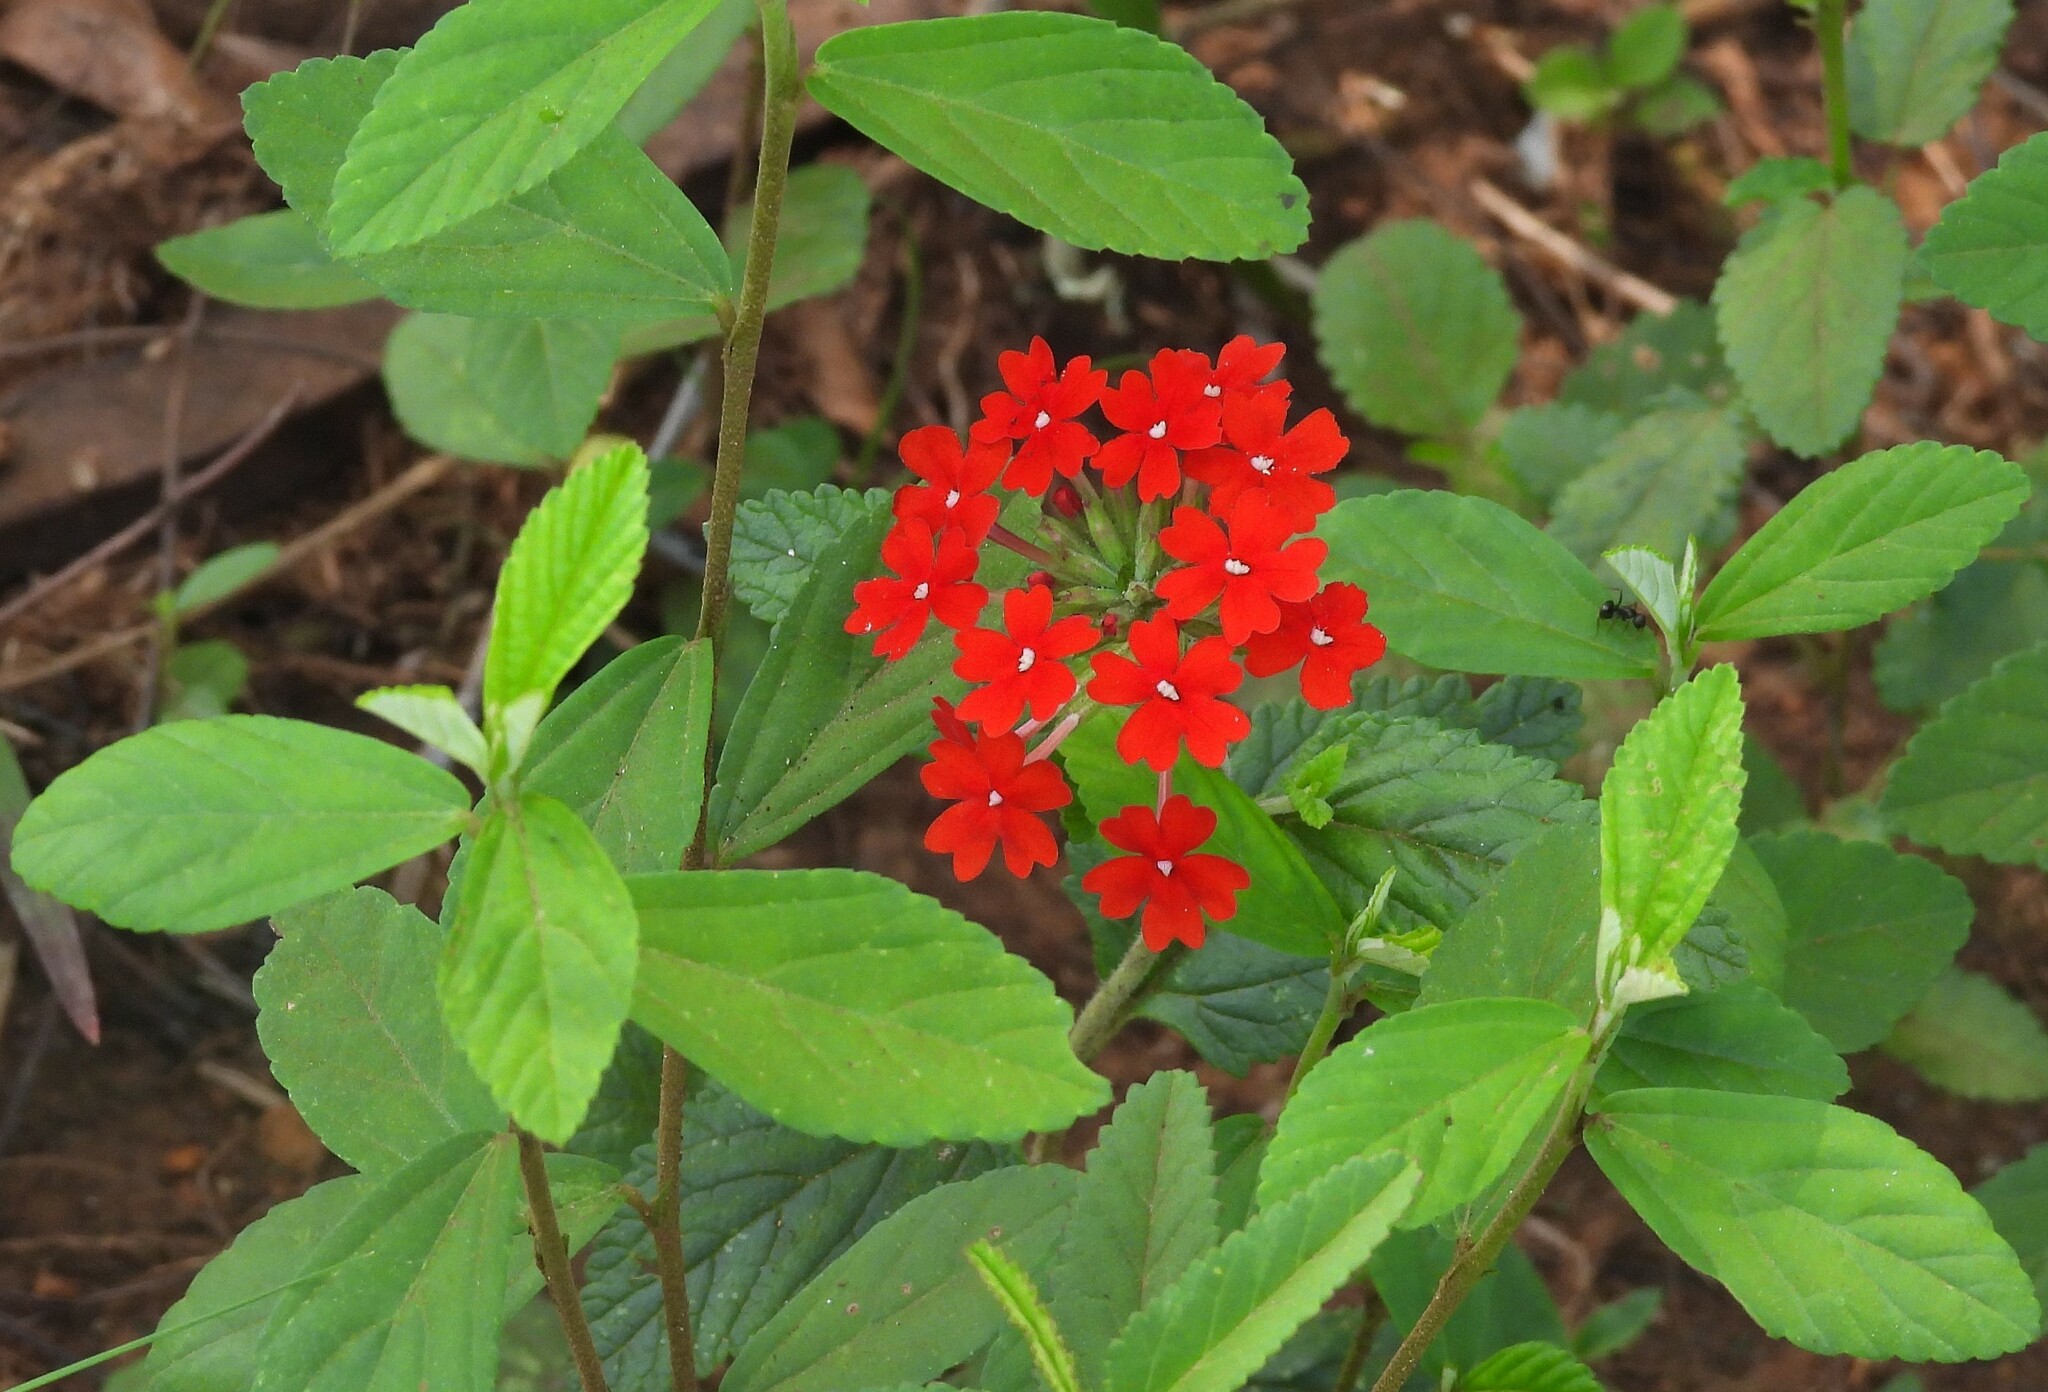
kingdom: Plantae
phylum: Tracheophyta
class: Magnoliopsida
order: Lamiales
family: Verbenaceae
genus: Verbena
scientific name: Verbena peruviana
